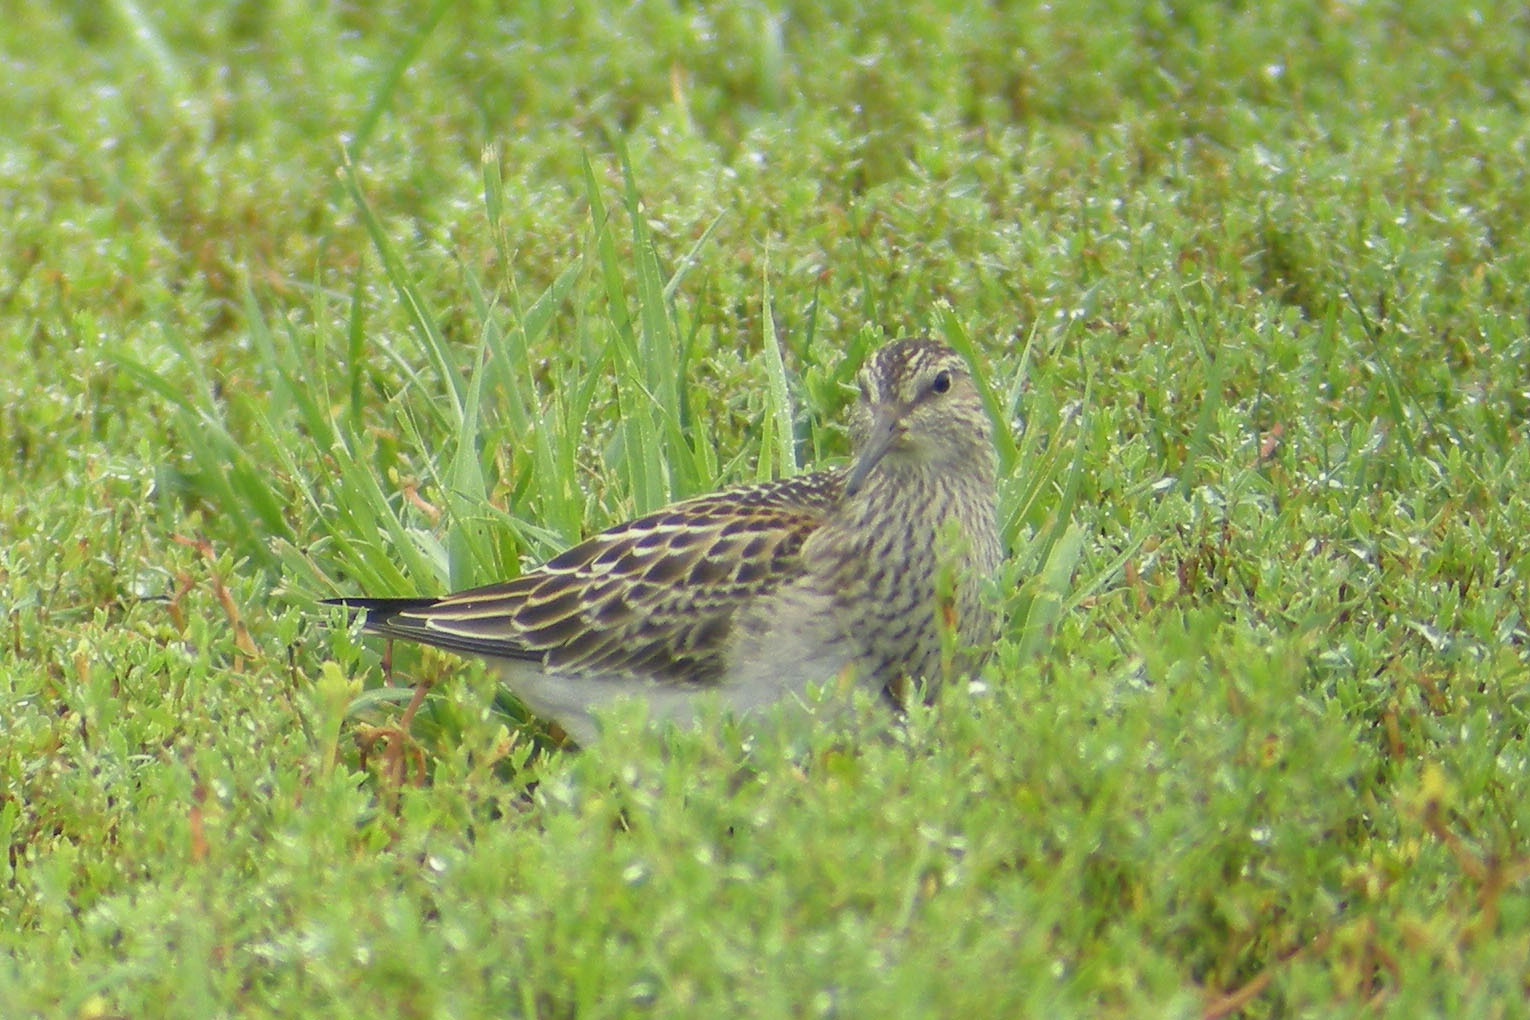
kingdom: Animalia
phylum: Chordata
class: Aves
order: Charadriiformes
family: Scolopacidae
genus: Calidris
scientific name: Calidris melanotos
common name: Pectoral sandpiper
